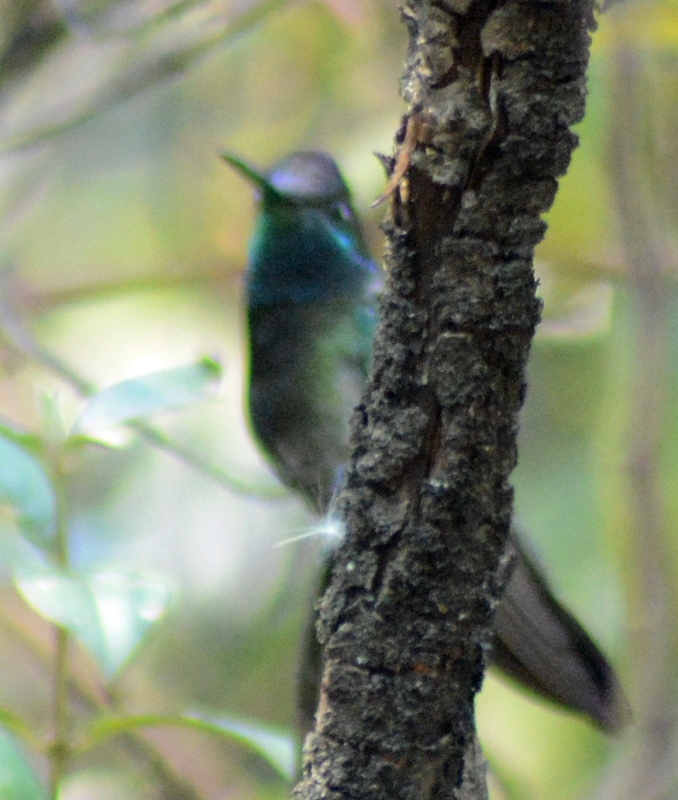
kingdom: Animalia
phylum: Chordata
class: Aves
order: Apodiformes
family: Trochilidae
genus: Eugenes
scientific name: Eugenes fulgens
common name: Magnificent hummingbird
